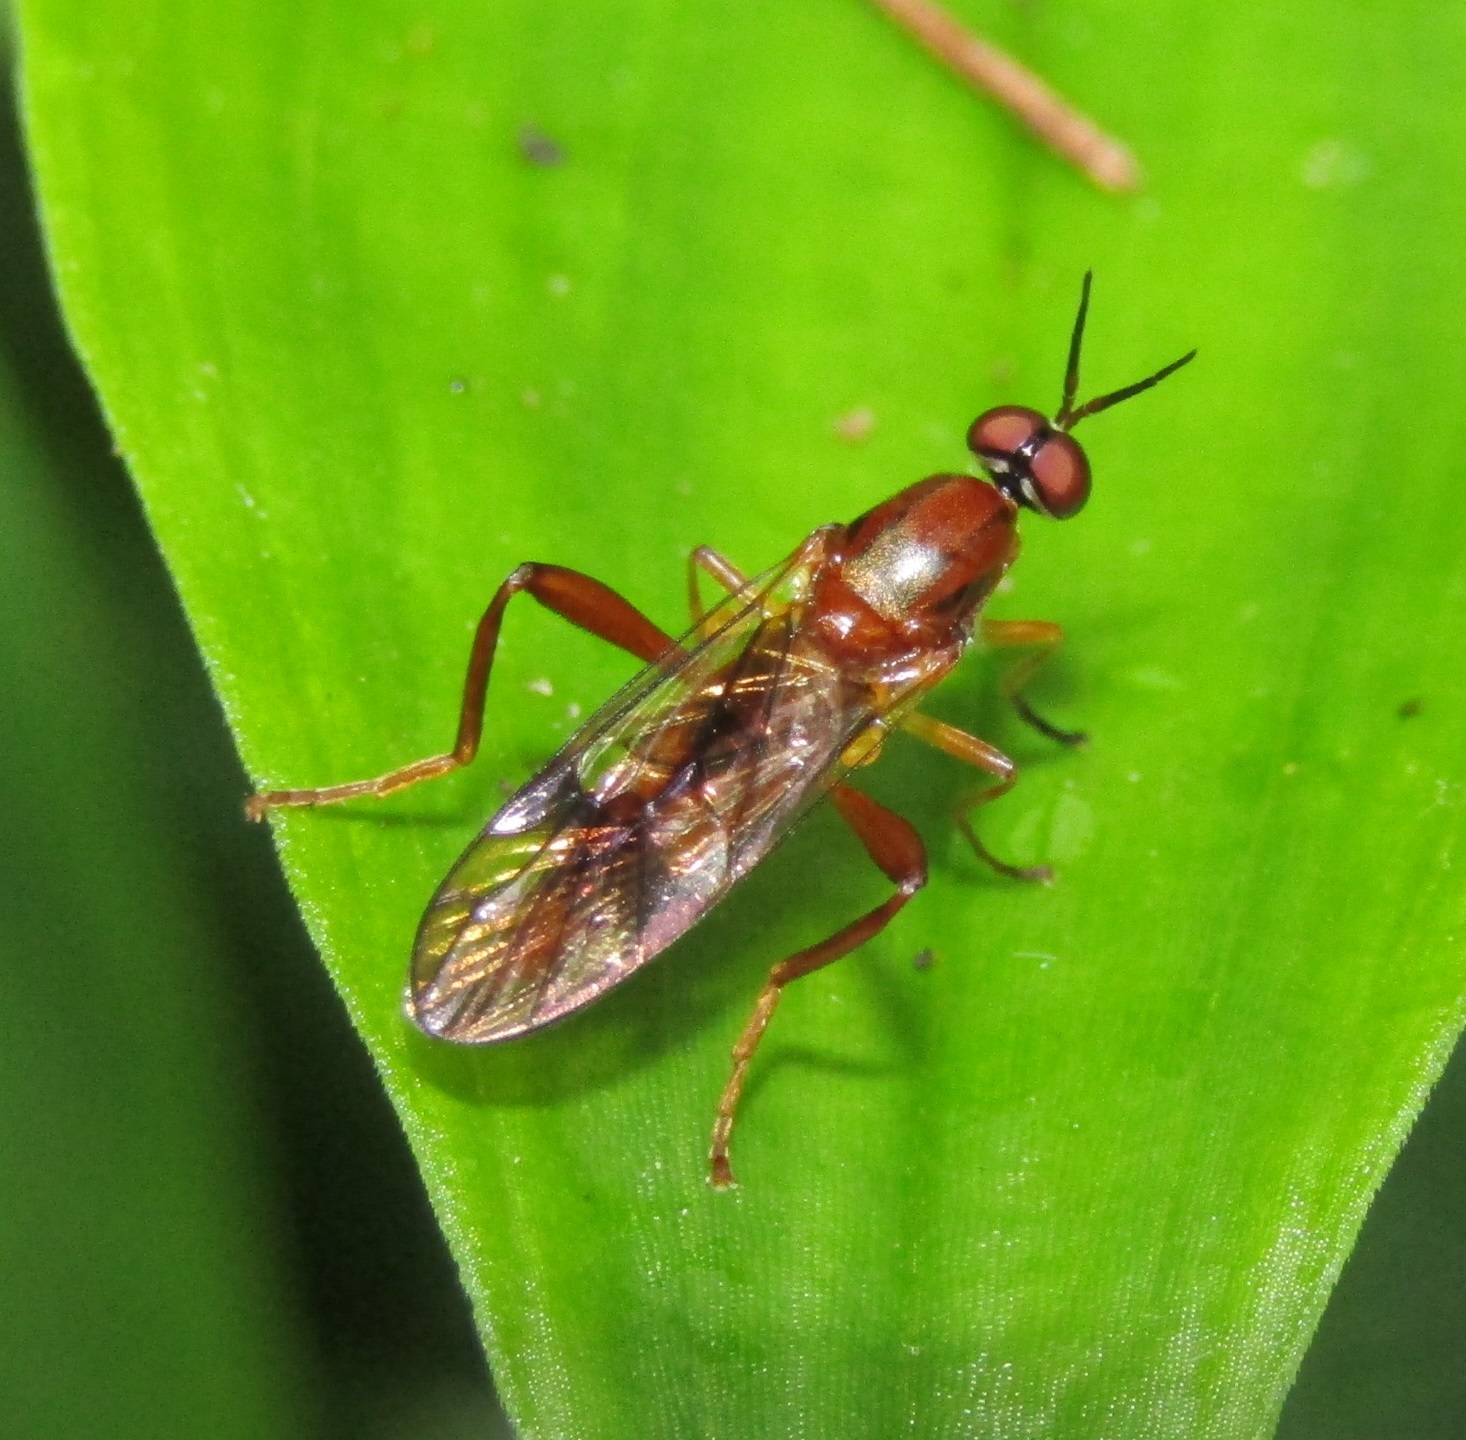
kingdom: Animalia
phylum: Arthropoda
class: Insecta
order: Diptera
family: Stratiomyidae
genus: Benhamyia
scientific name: Benhamyia straznitzkii
